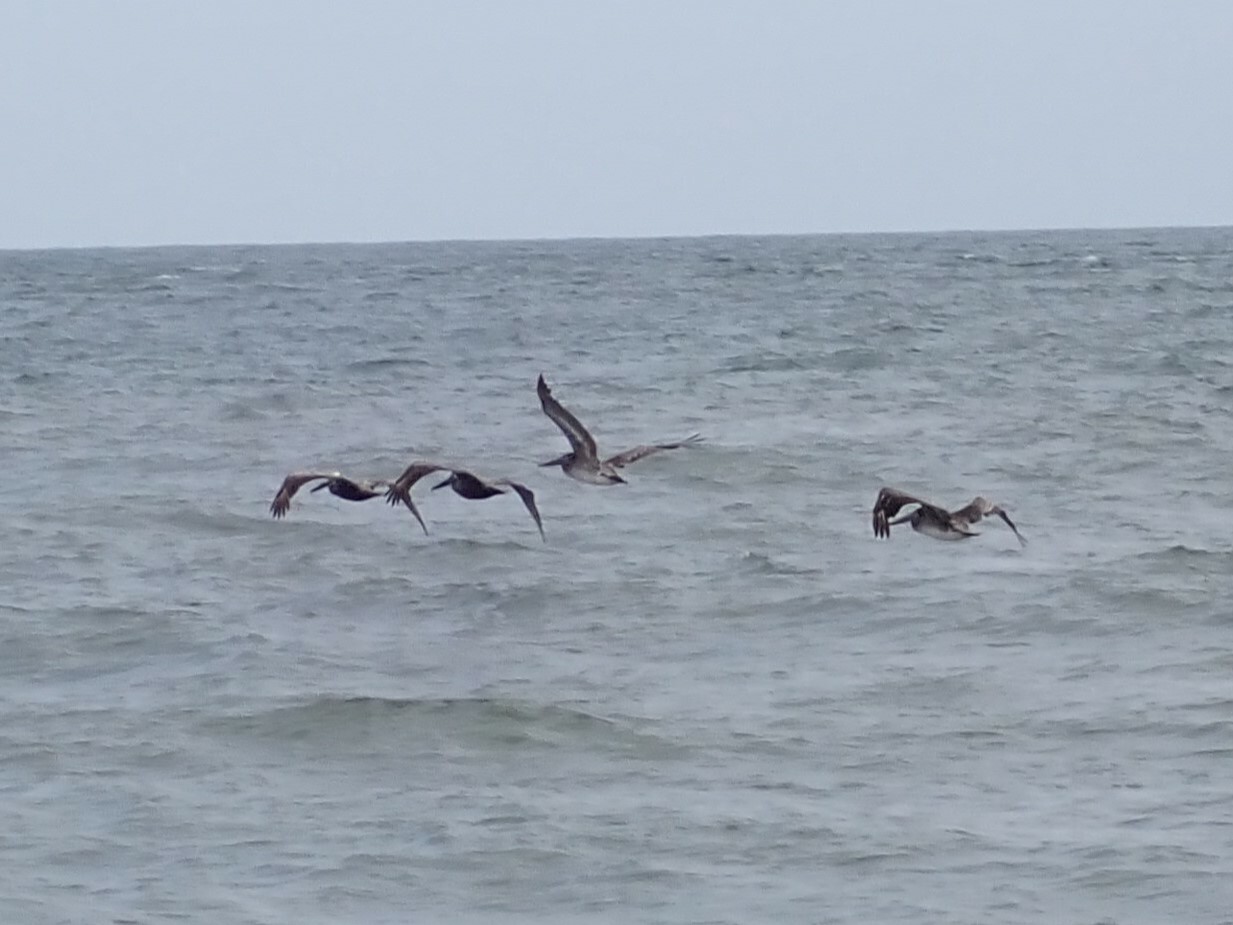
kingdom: Animalia
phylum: Chordata
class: Aves
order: Pelecaniformes
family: Pelecanidae
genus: Pelecanus
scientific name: Pelecanus occidentalis
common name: Brown pelican
